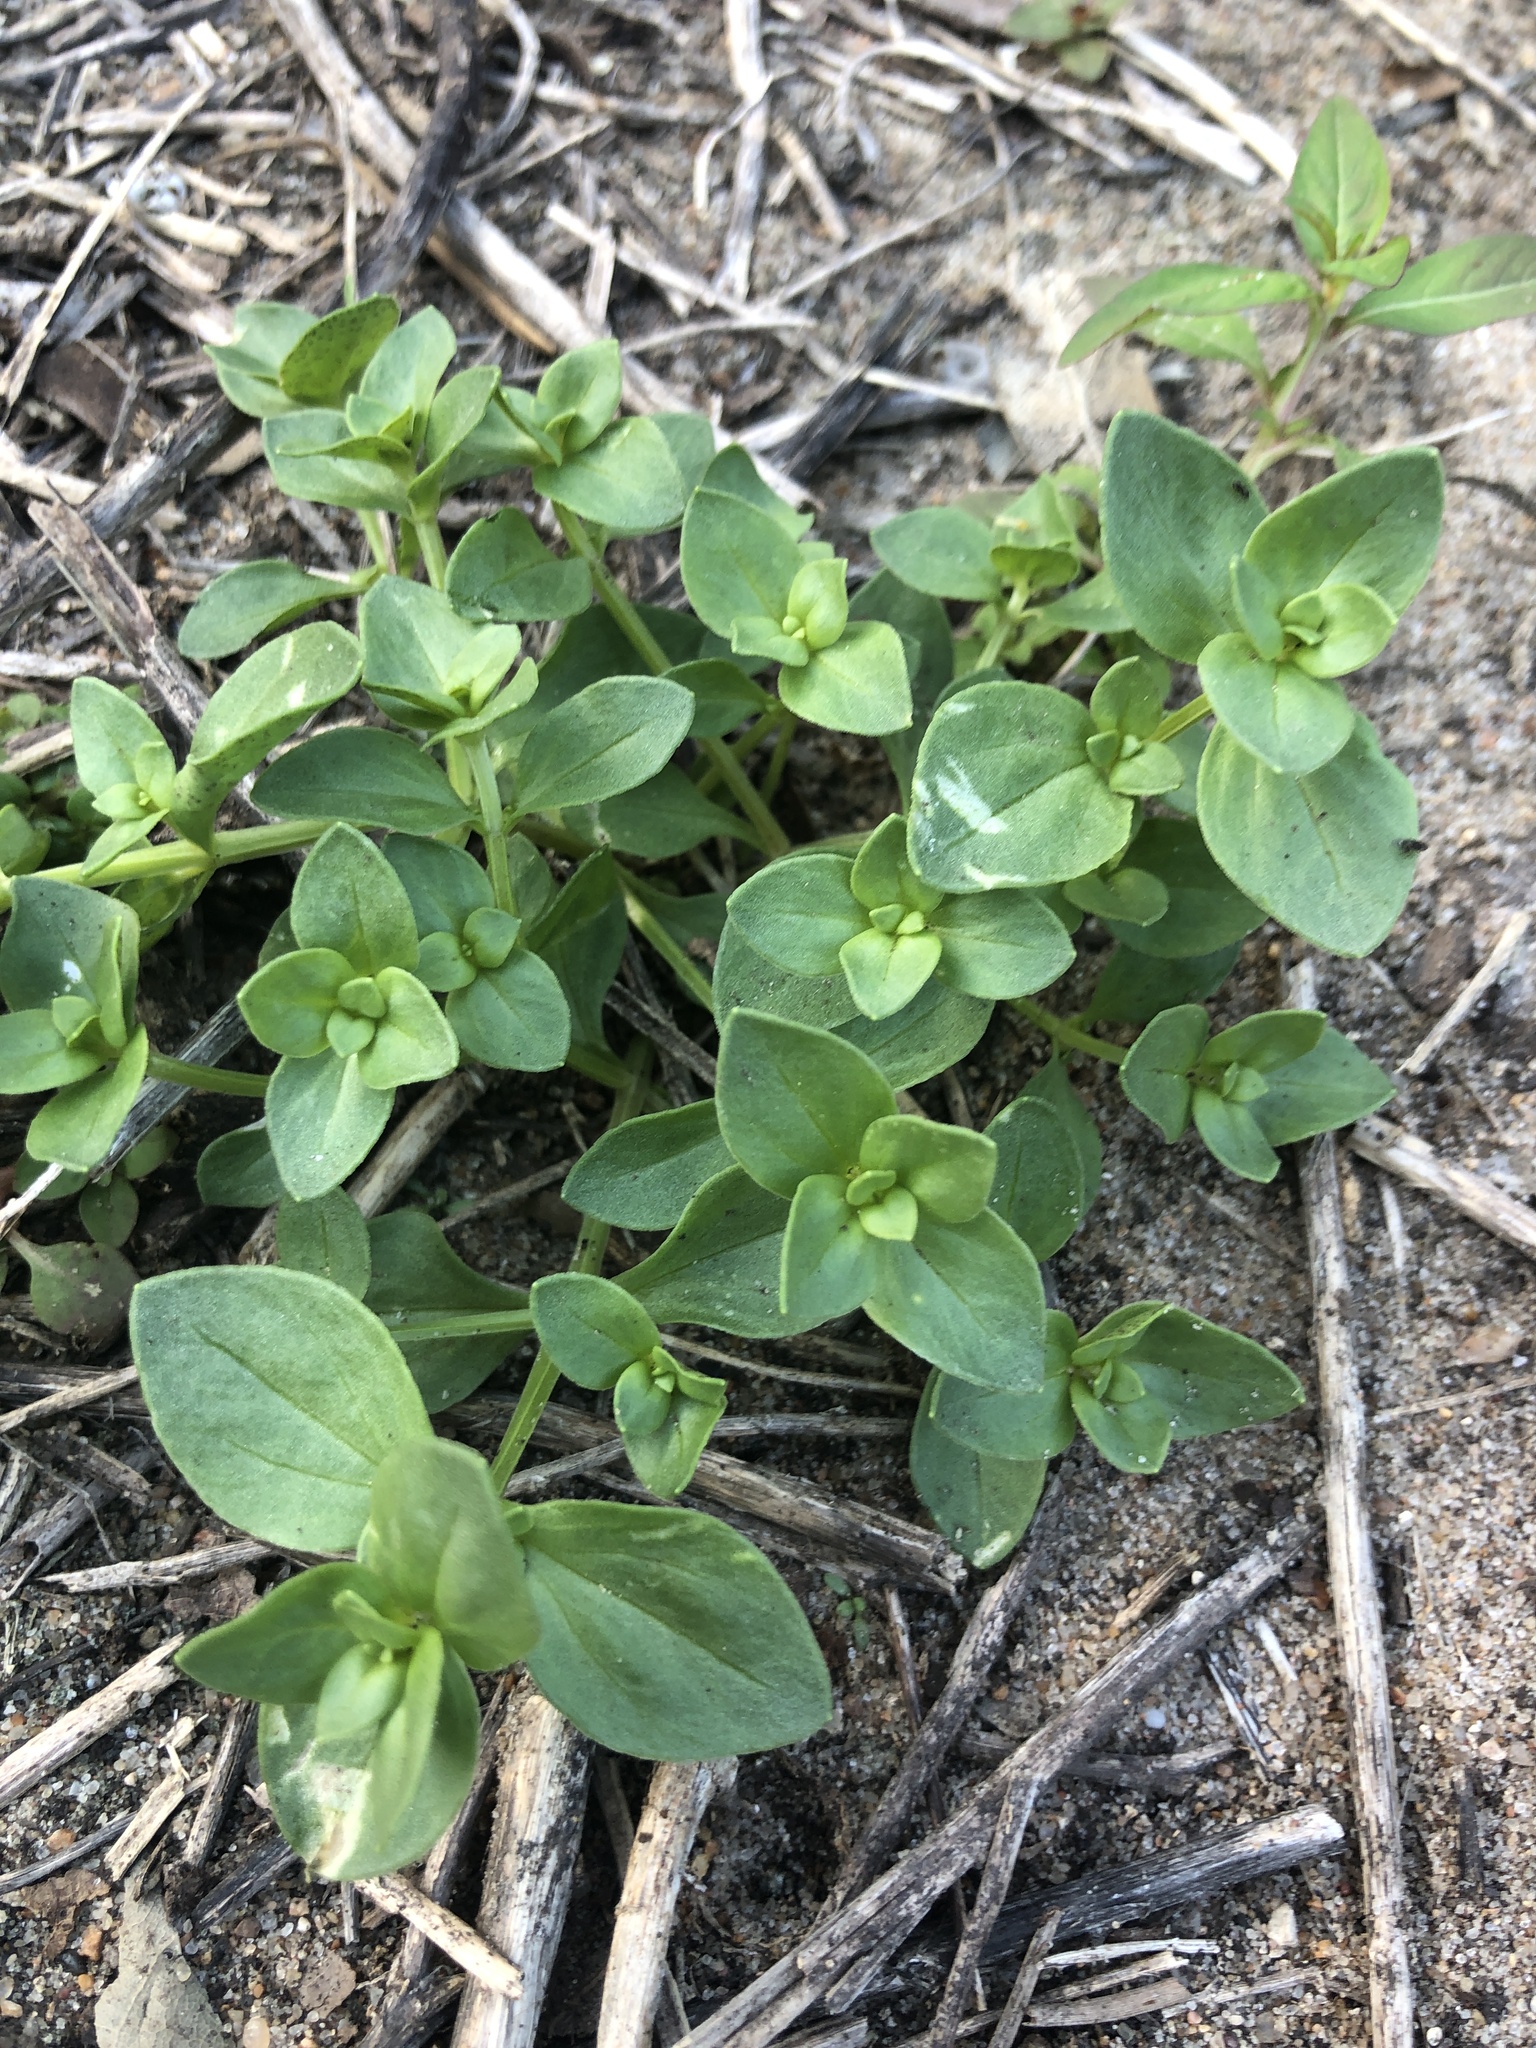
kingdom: Plantae
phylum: Tracheophyta
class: Magnoliopsida
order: Ericales
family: Primulaceae
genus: Lysimachia
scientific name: Lysimachia arvensis
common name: Scarlet pimpernel
